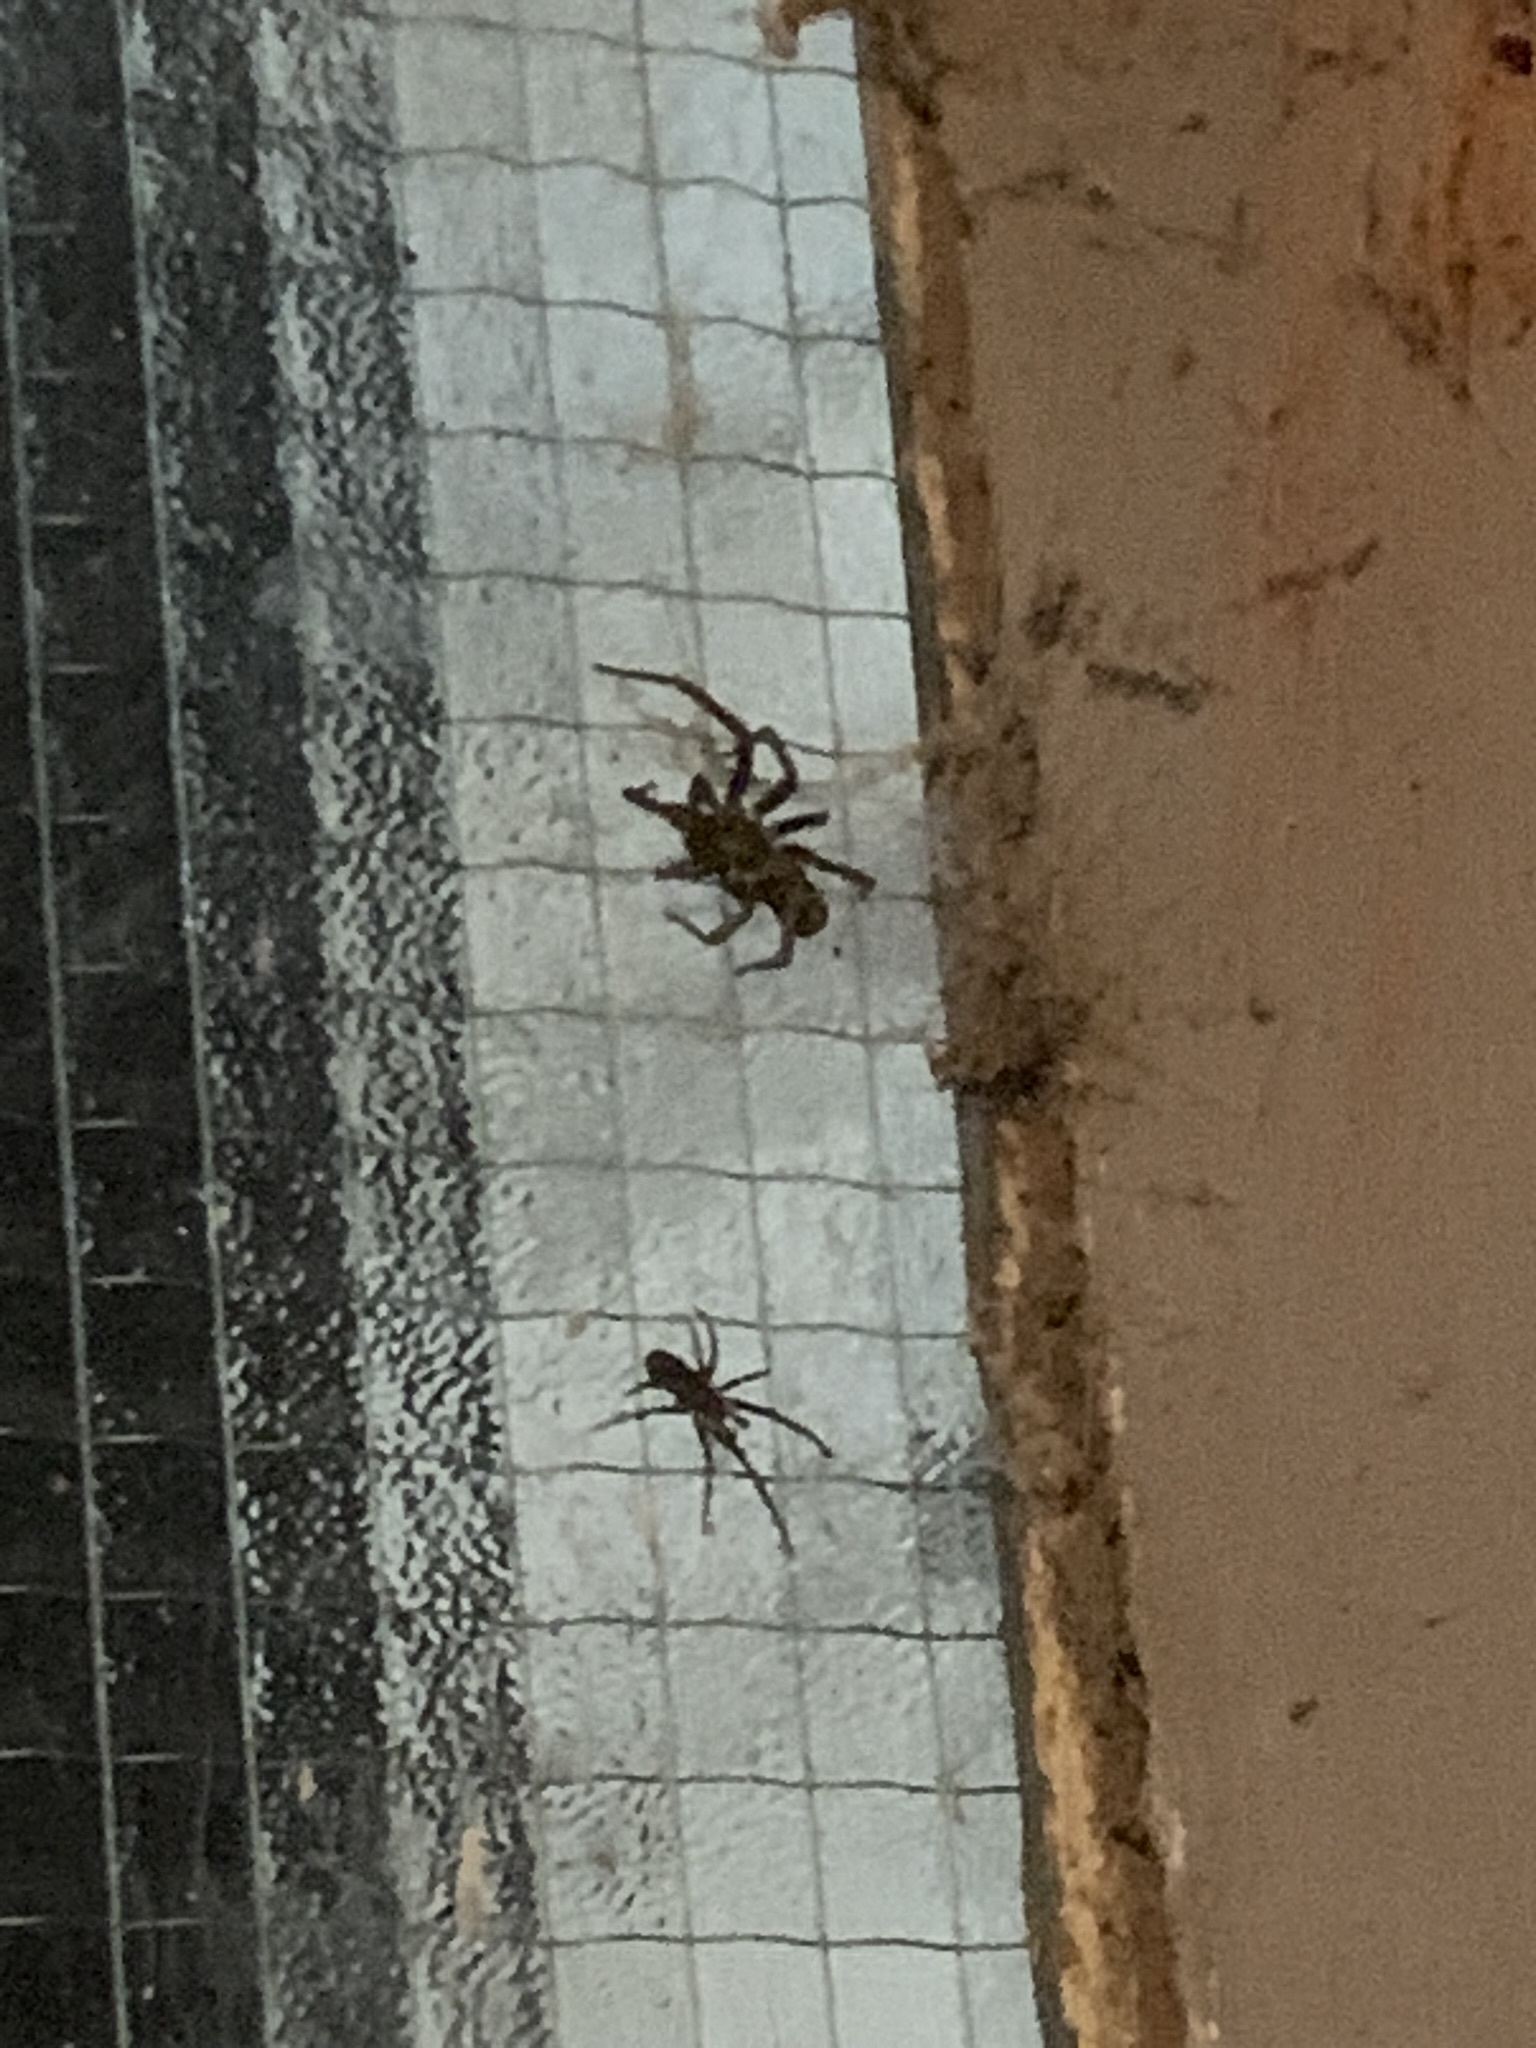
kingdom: Animalia
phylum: Arthropoda
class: Arachnida
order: Araneae
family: Filistatidae
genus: Kukulcania
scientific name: Kukulcania hibernalis
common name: Crevice weaver
